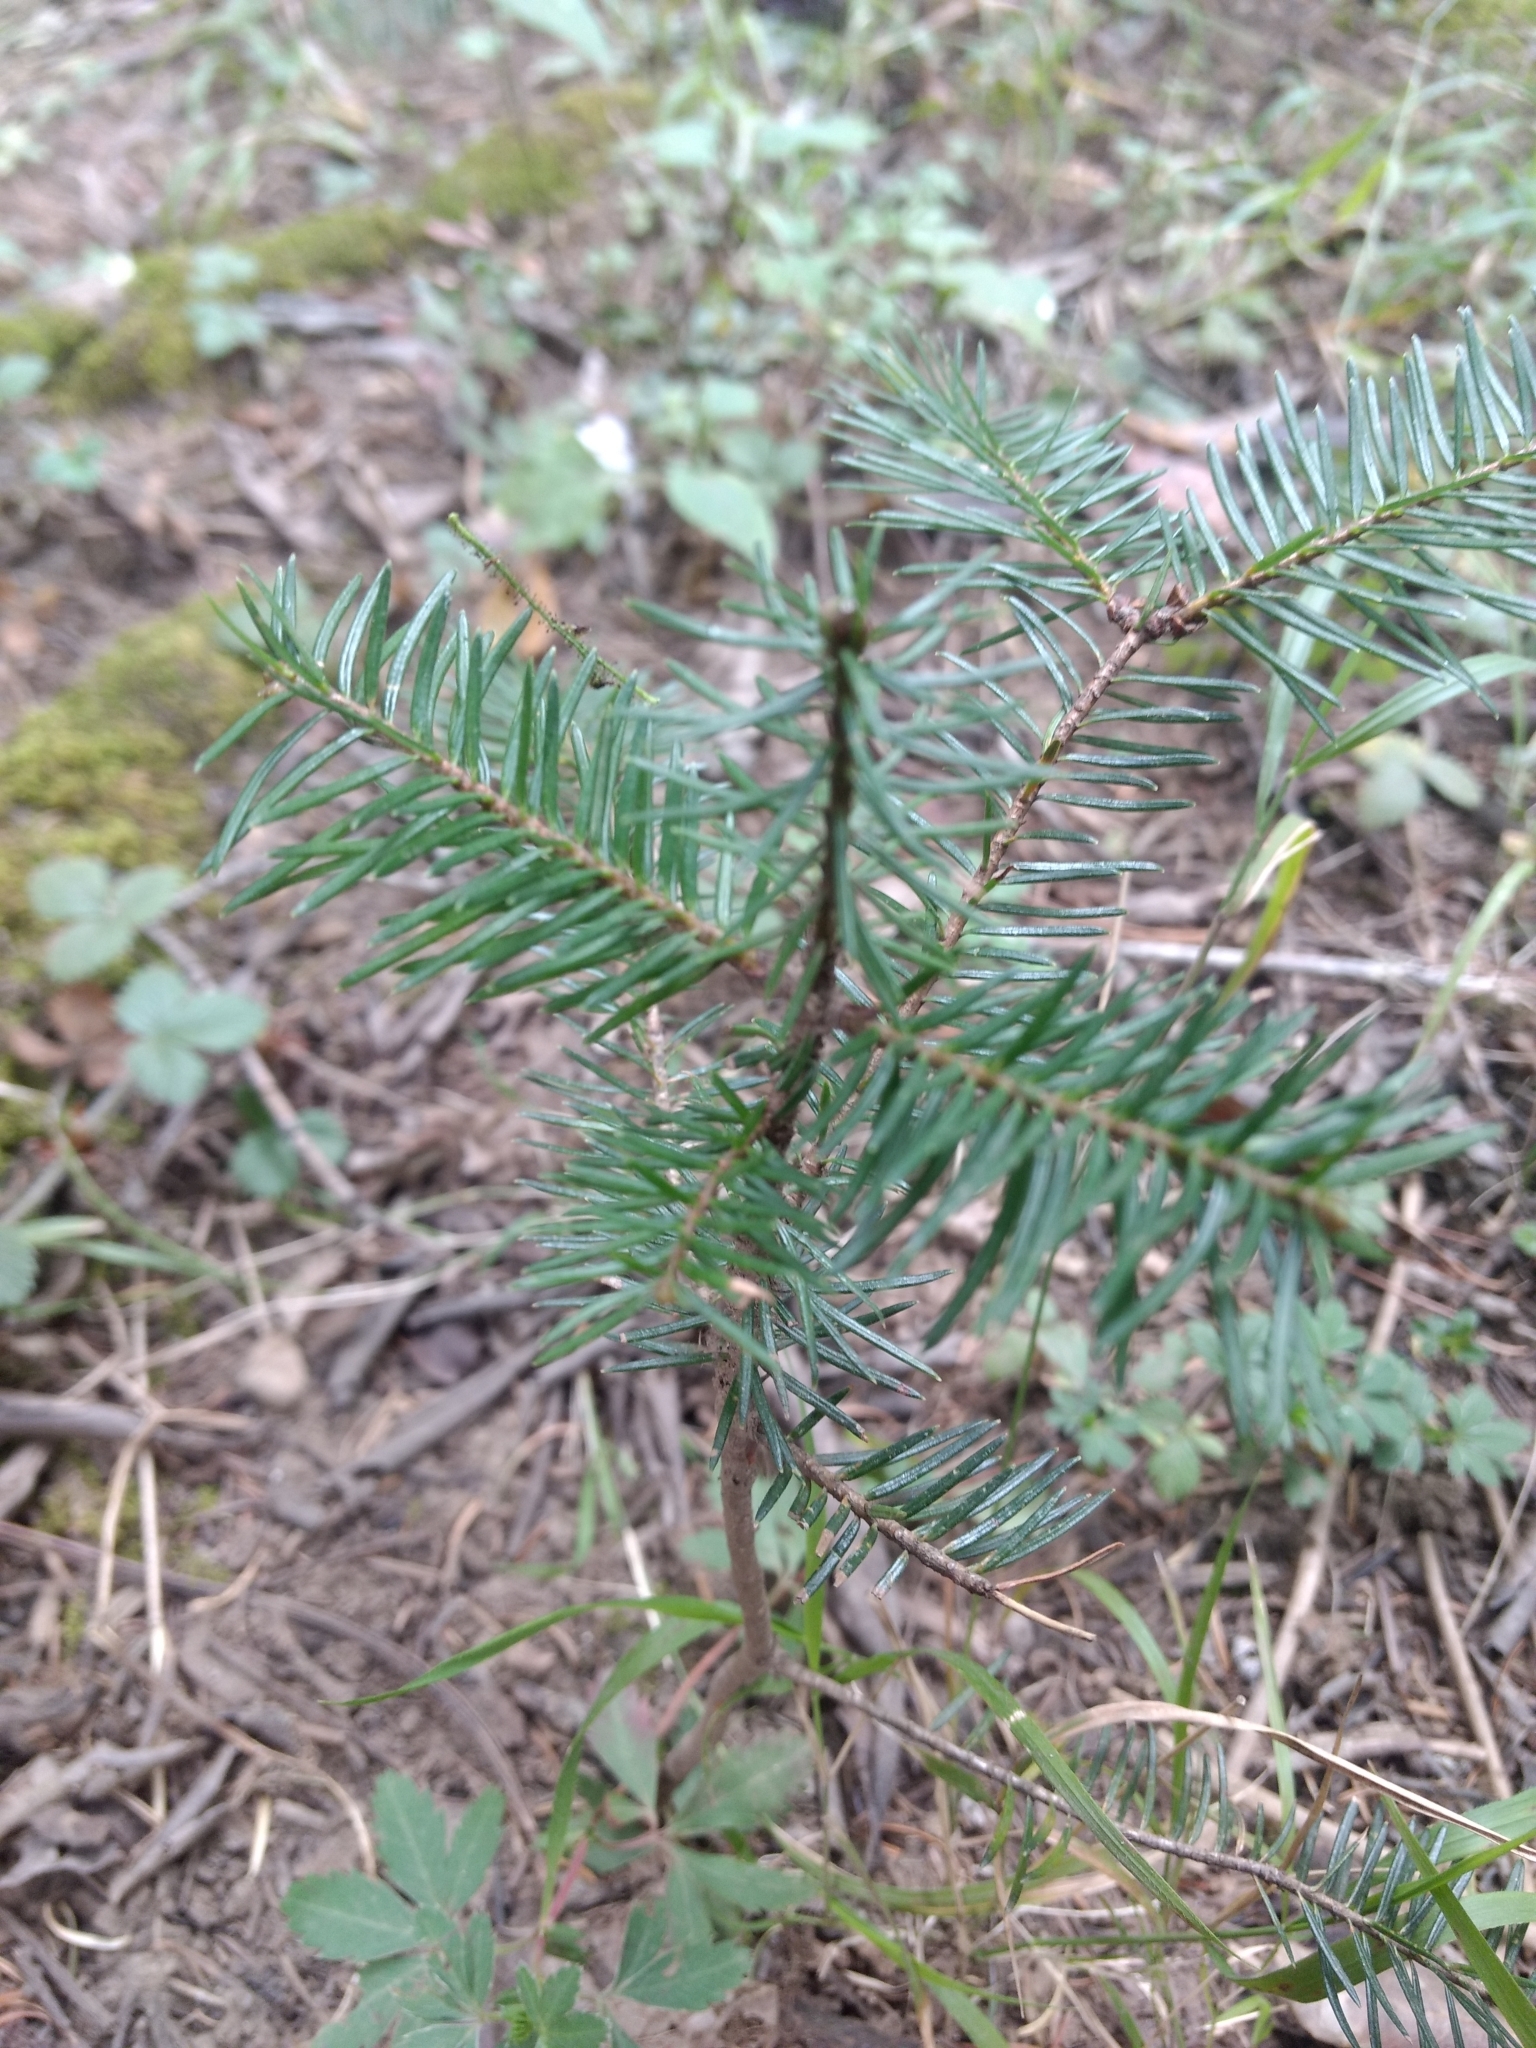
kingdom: Plantae
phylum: Tracheophyta
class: Pinopsida
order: Pinales
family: Pinaceae
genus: Abies
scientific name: Abies religiosa
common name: Sacred fir
